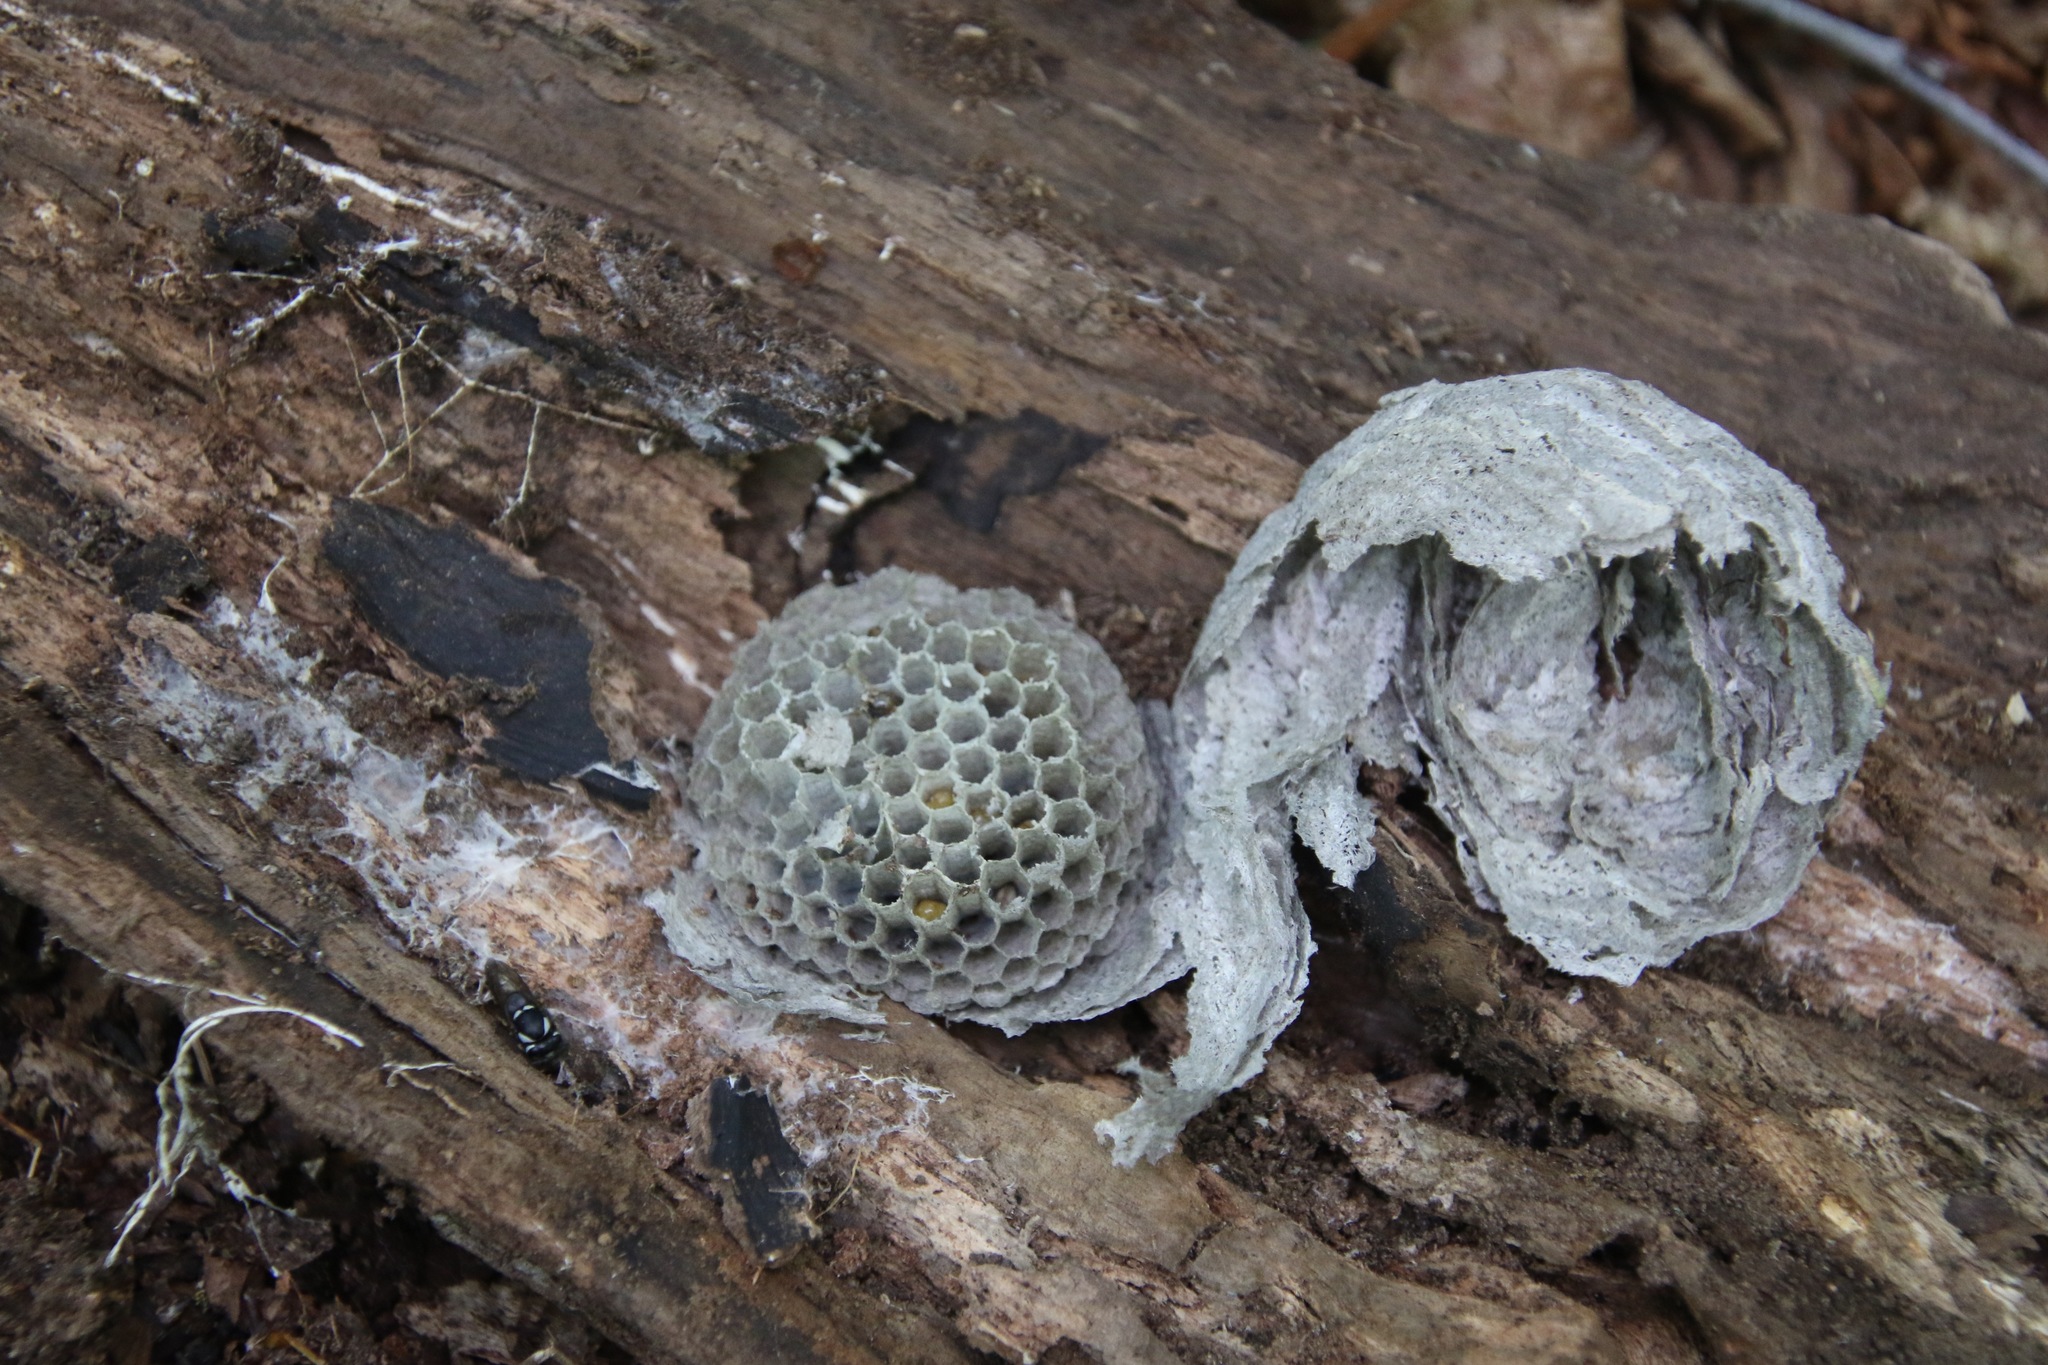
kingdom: Animalia
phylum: Arthropoda
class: Insecta
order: Hymenoptera
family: Vespidae
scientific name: Vespidae
